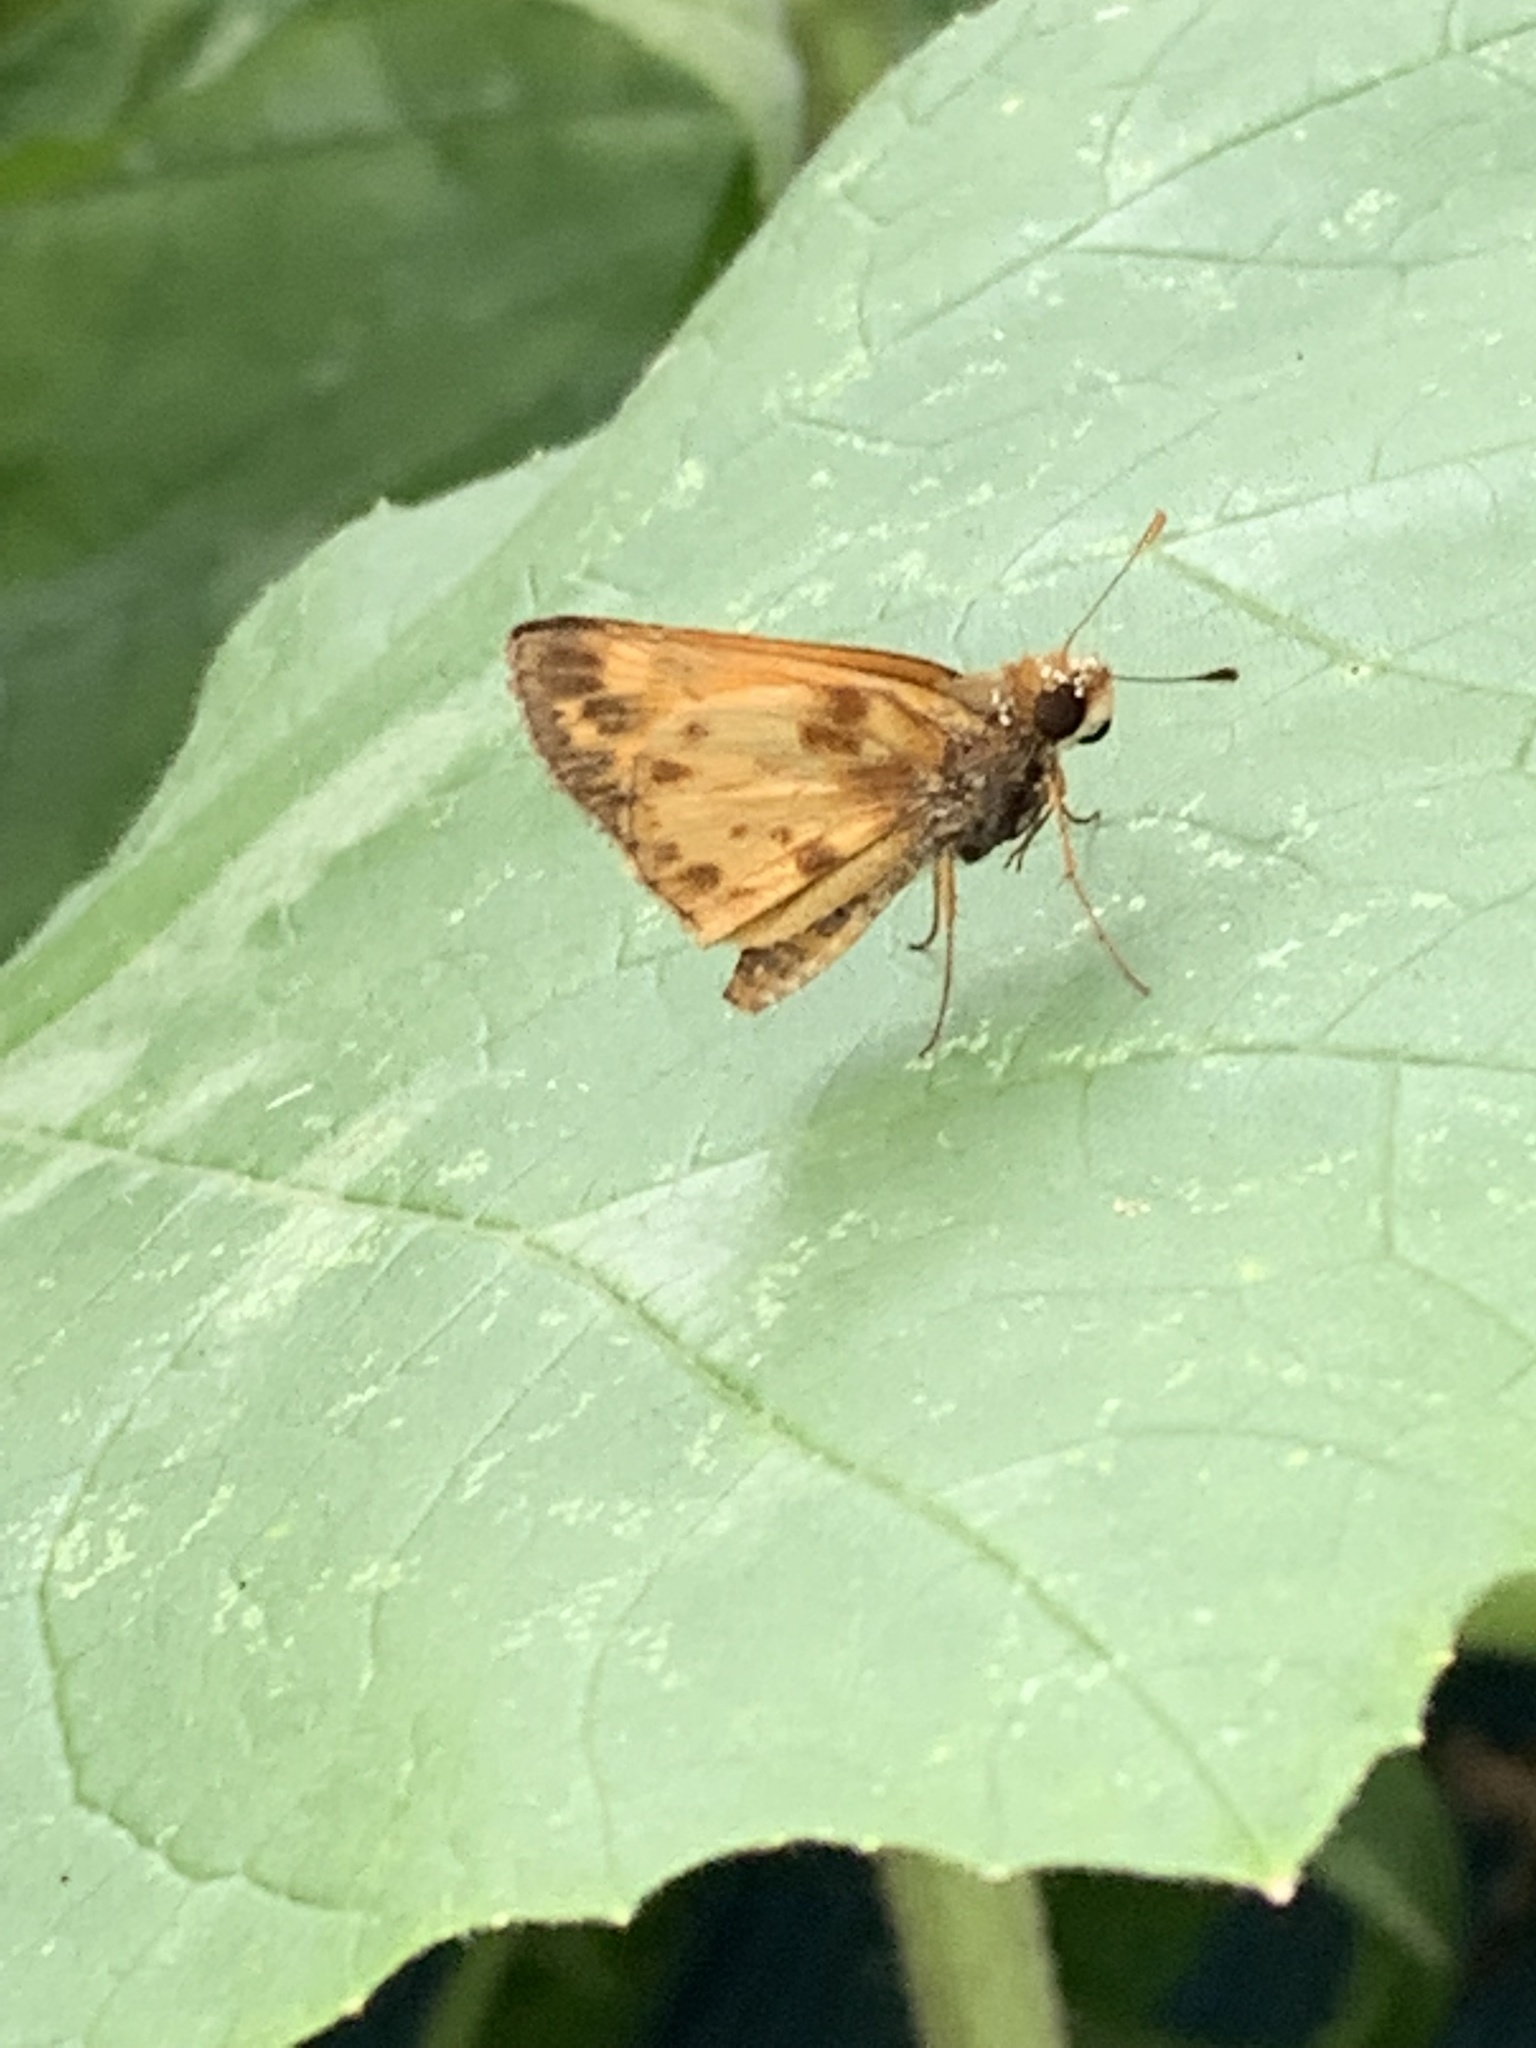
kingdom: Animalia
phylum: Arthropoda
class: Insecta
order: Lepidoptera
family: Hesperiidae
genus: Lon
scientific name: Lon zabulon
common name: Zabulon skipper
